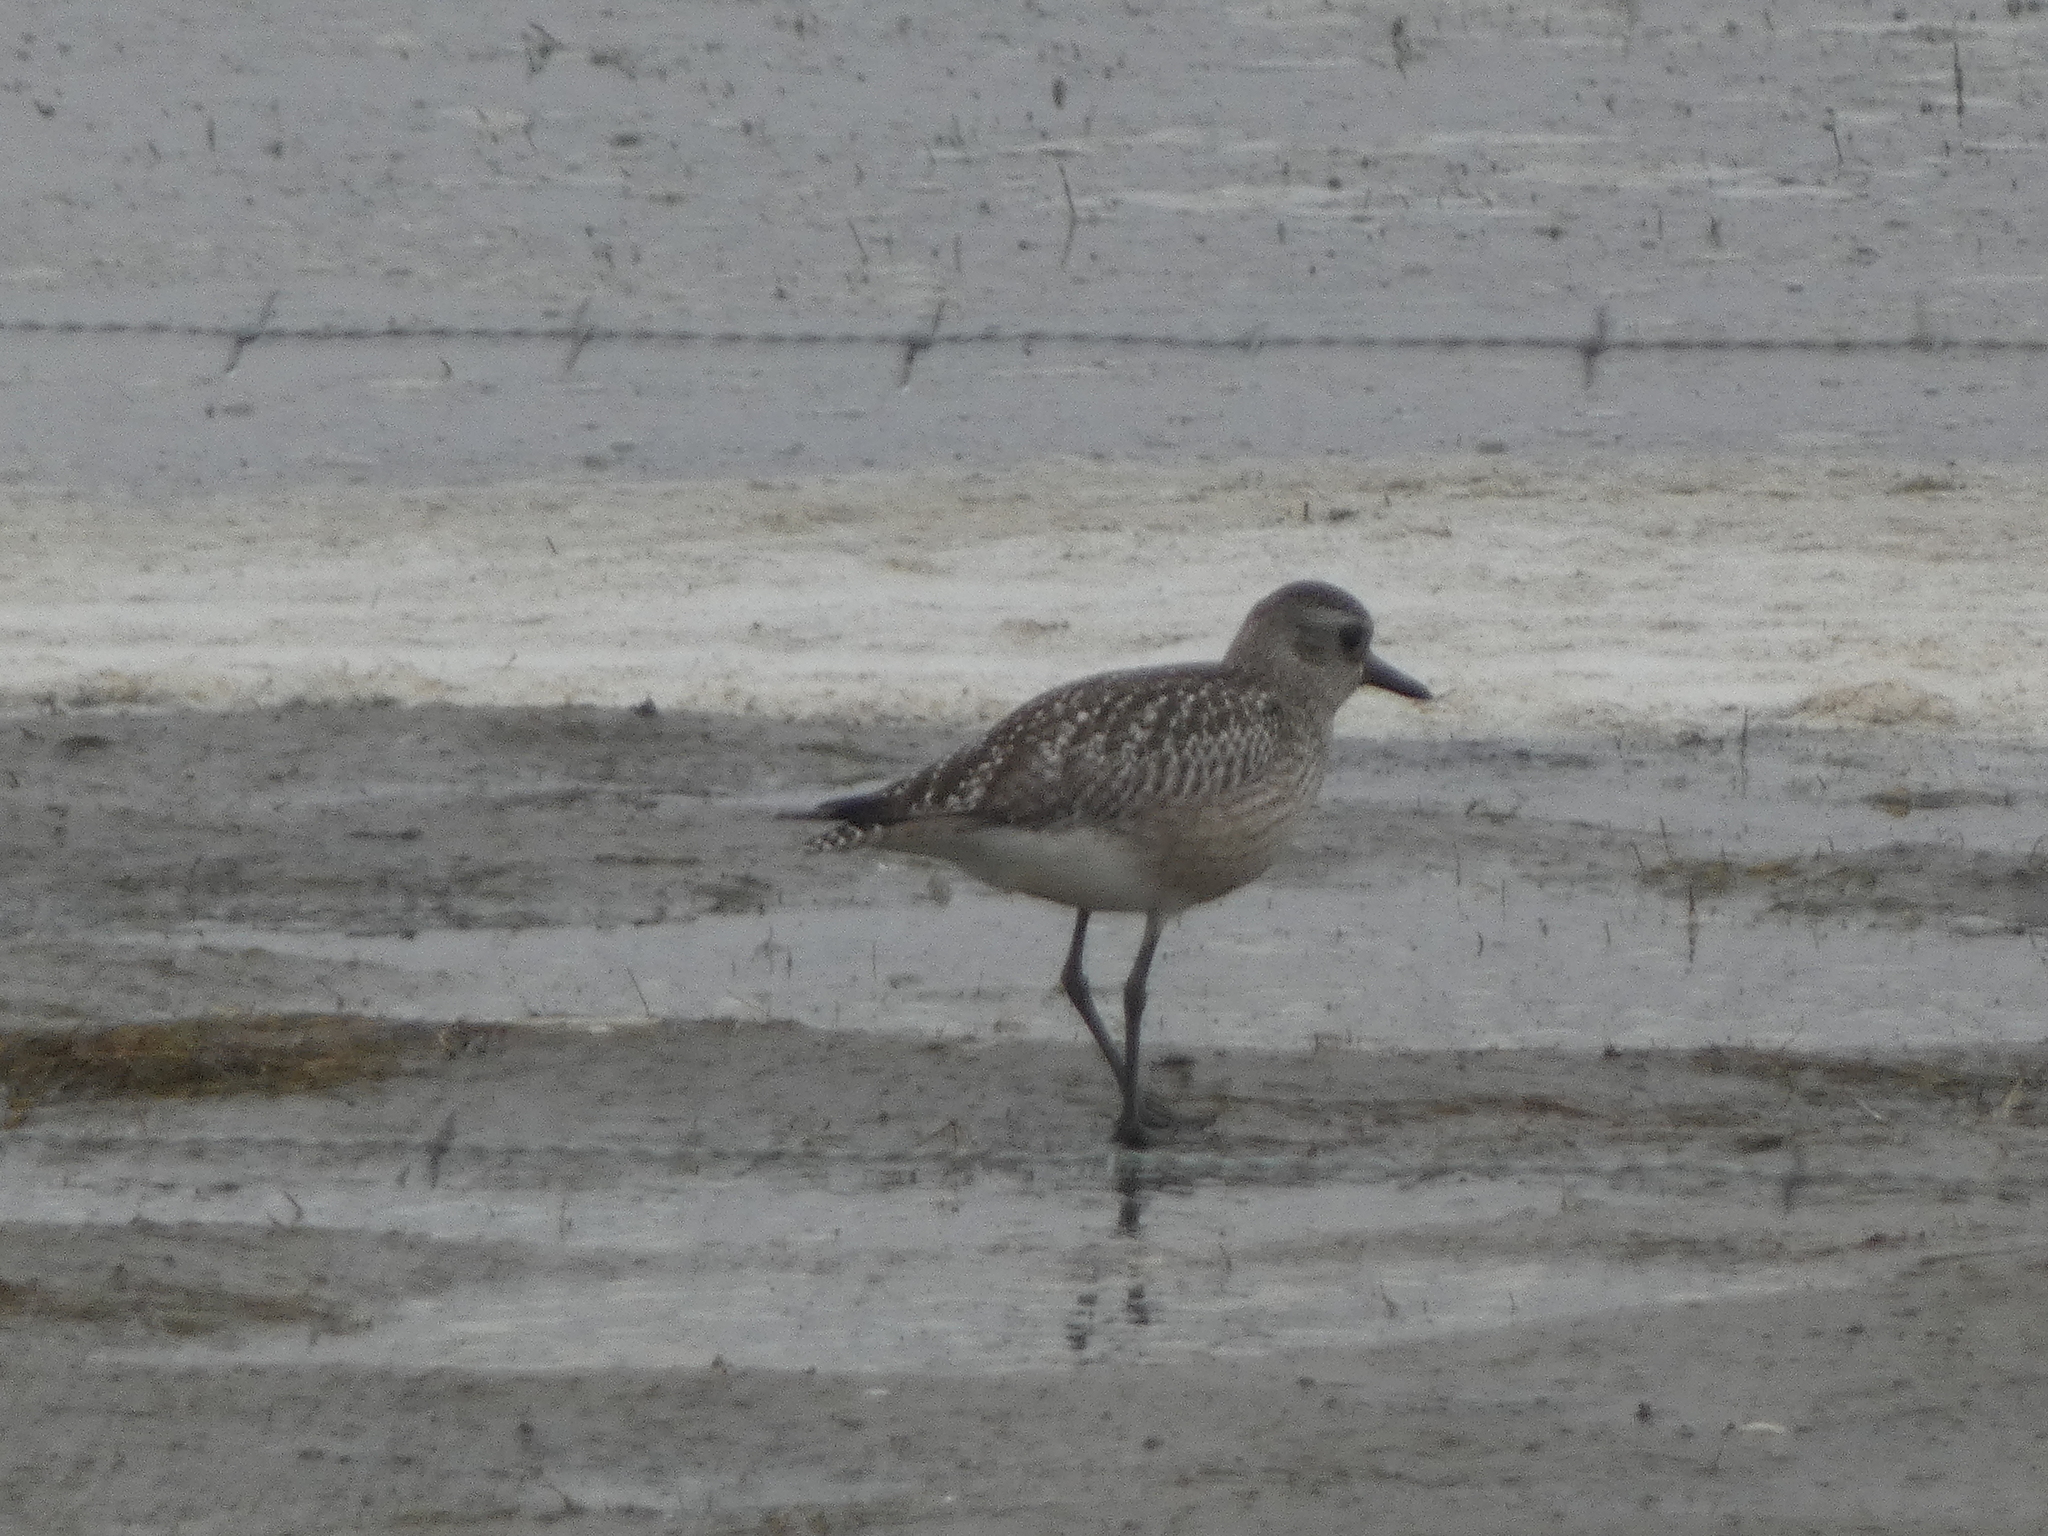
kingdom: Animalia
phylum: Chordata
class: Aves
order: Charadriiformes
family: Charadriidae
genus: Pluvialis
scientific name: Pluvialis squatarola
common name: Grey plover
